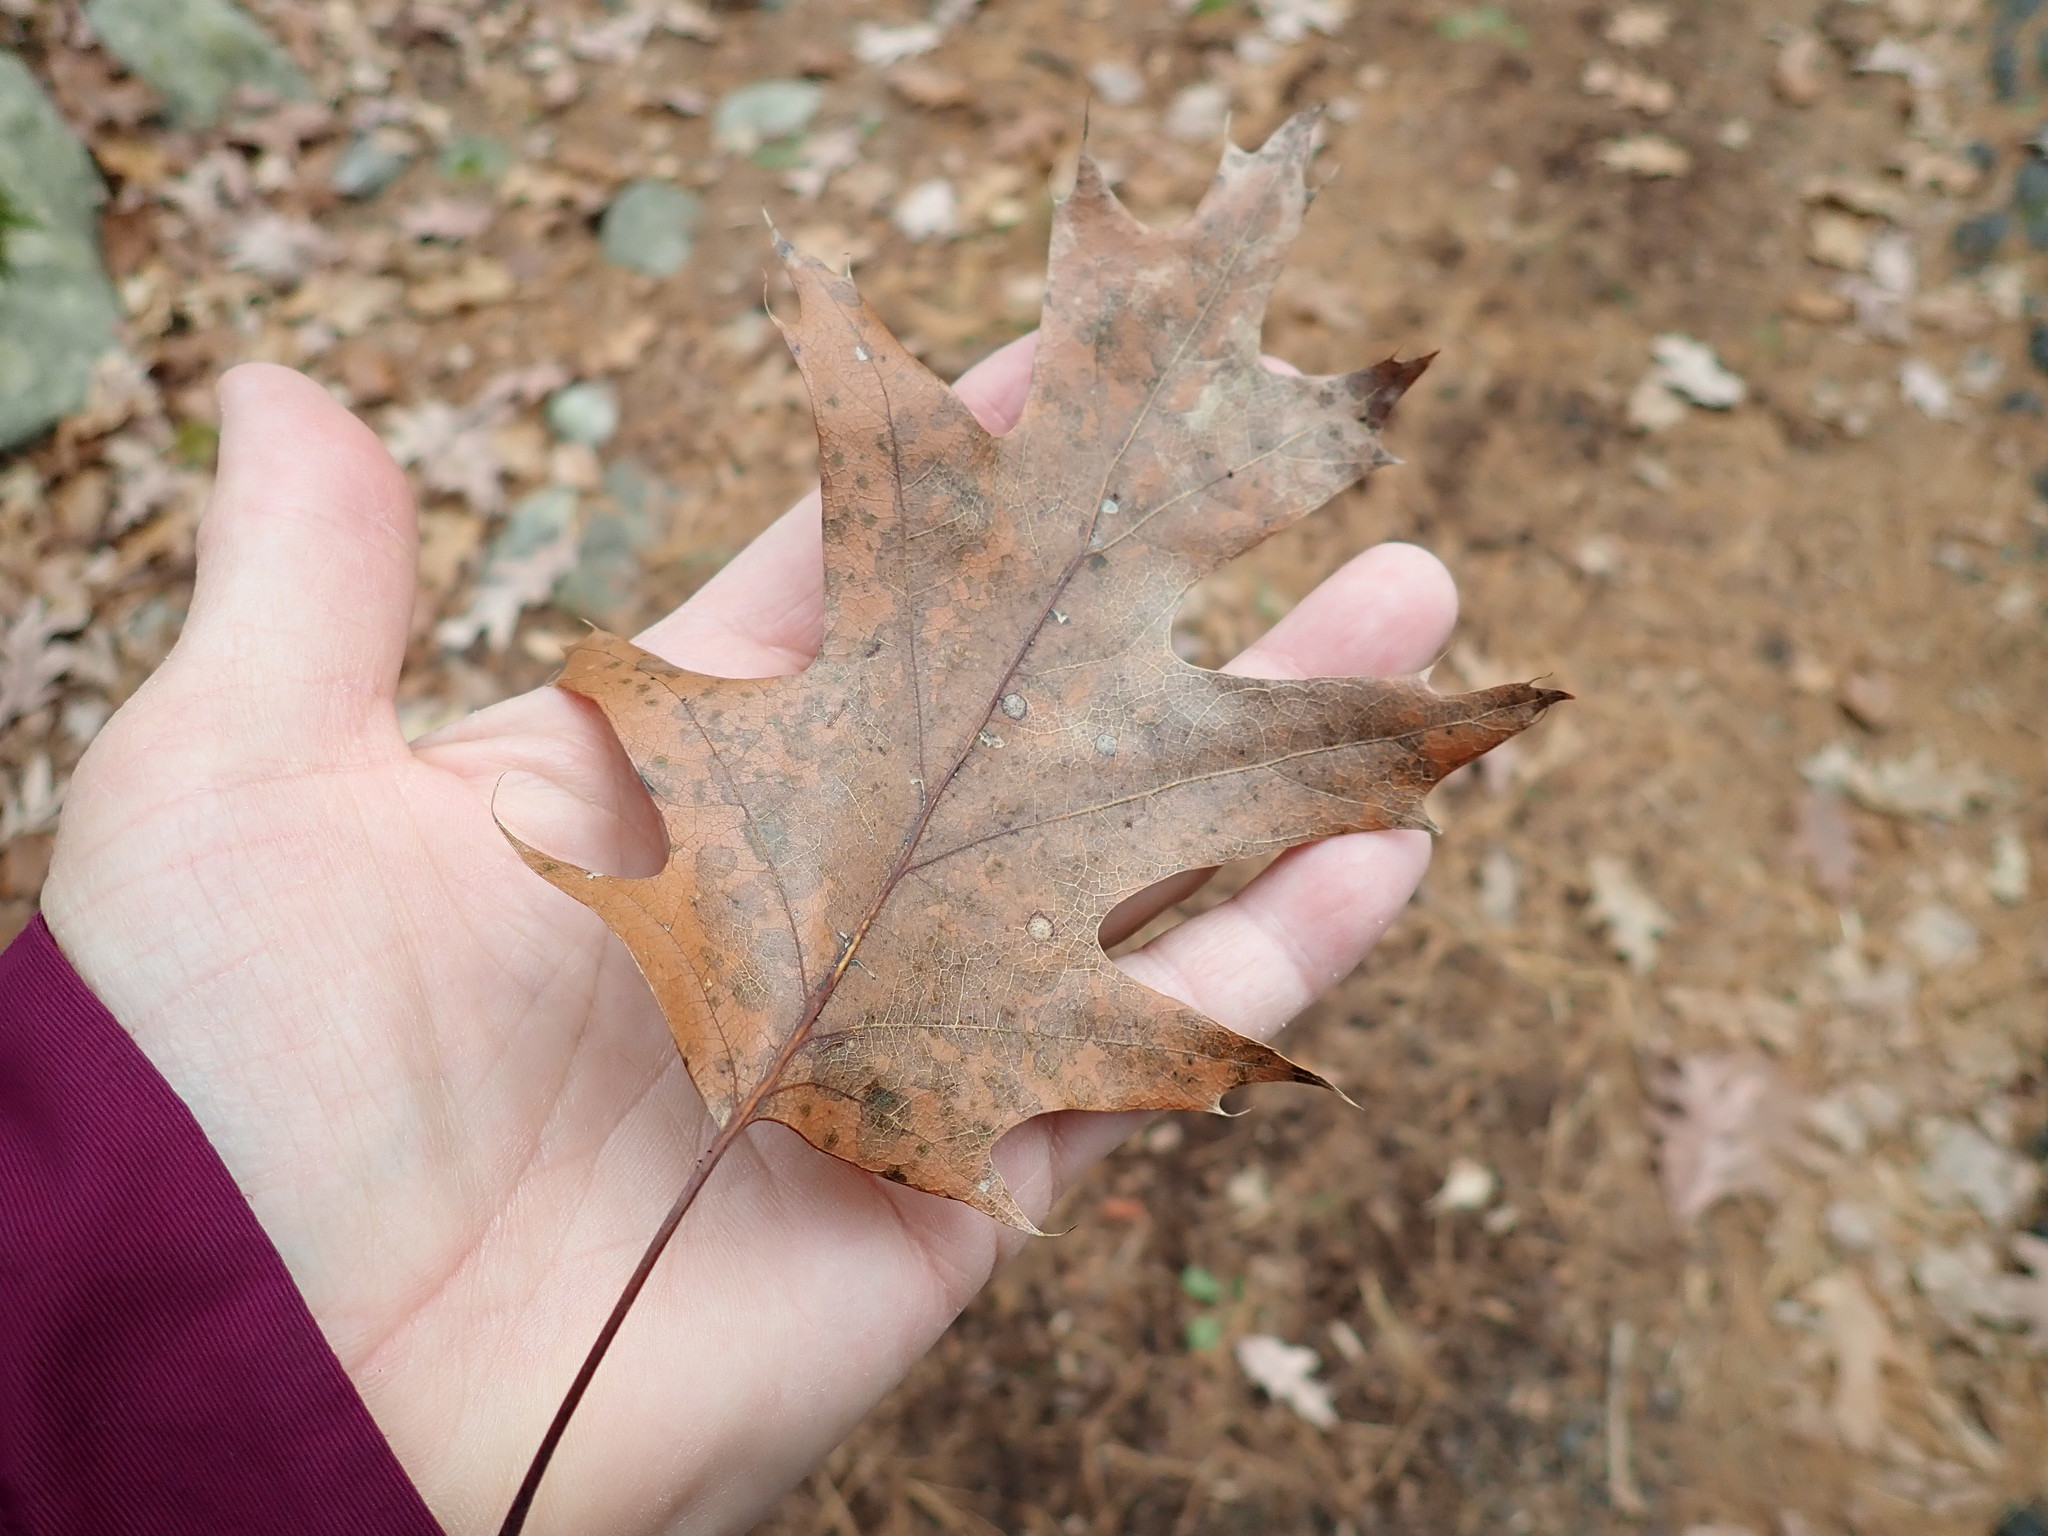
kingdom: Plantae
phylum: Tracheophyta
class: Magnoliopsida
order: Fagales
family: Fagaceae
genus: Quercus
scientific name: Quercus rubra
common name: Red oak
